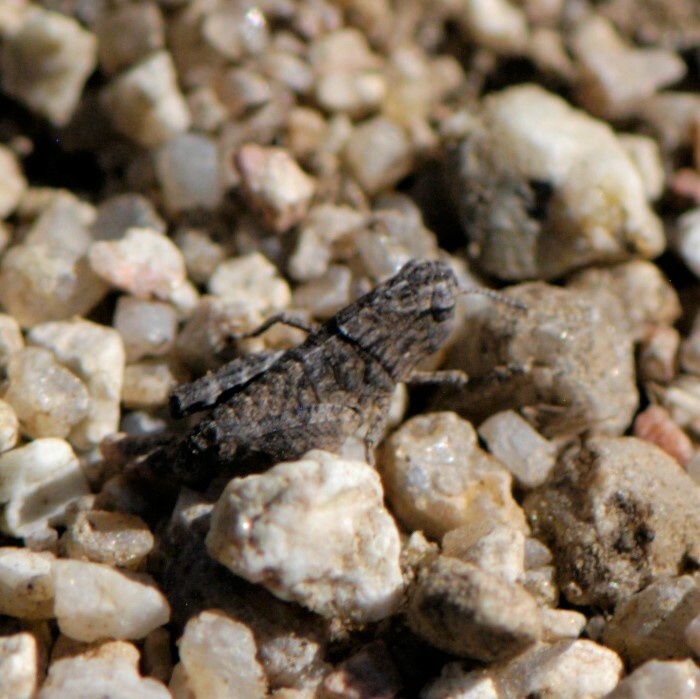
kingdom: Animalia
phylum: Arthropoda
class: Insecta
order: Orthoptera
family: Acrididae
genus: Arphia
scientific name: Arphia conspersa
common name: Speckle-winged rangeland grasshopper
